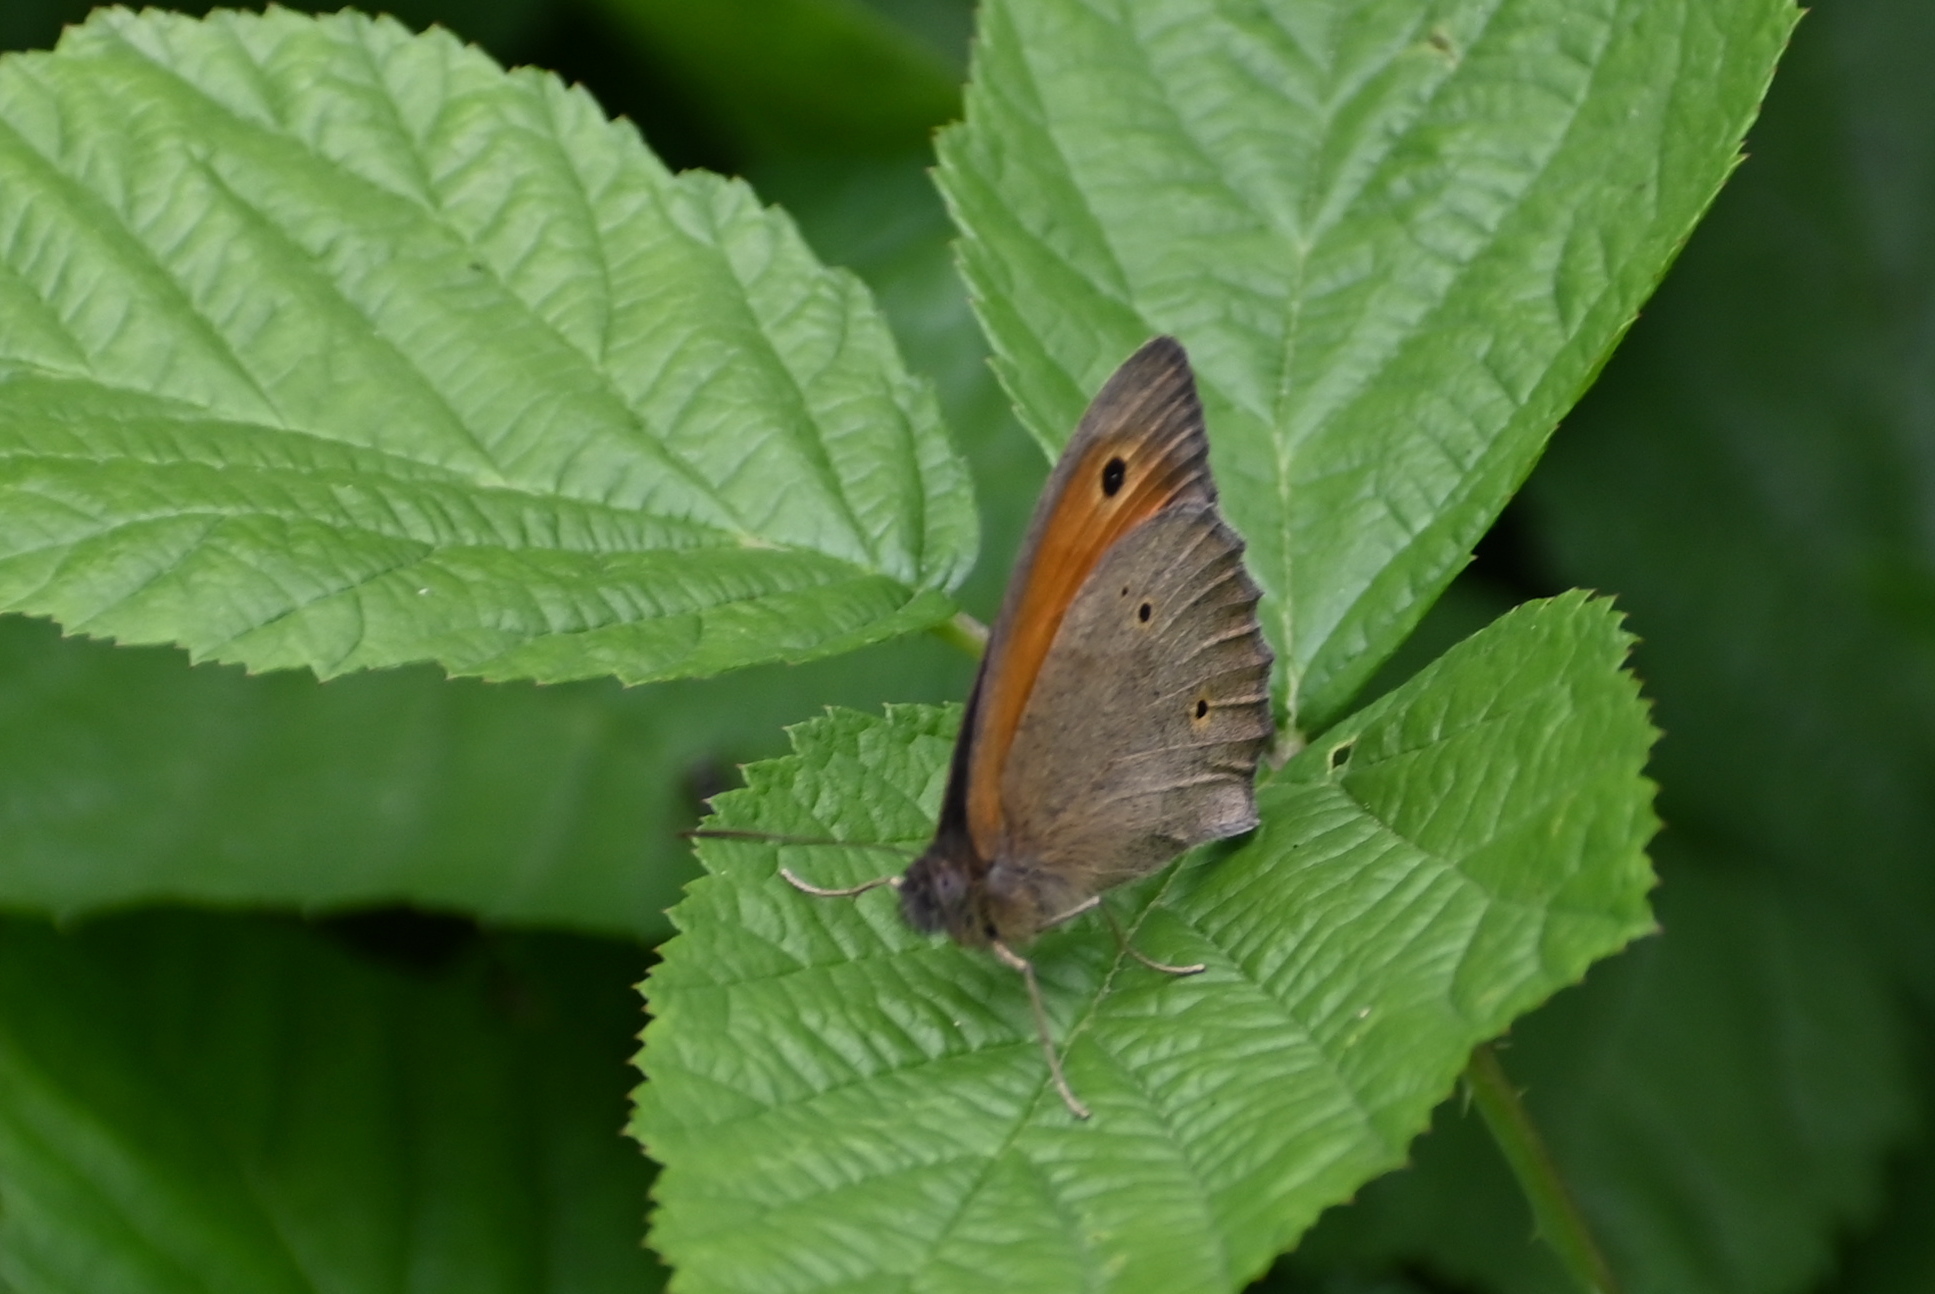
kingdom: Animalia
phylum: Arthropoda
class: Insecta
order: Lepidoptera
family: Nymphalidae
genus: Maniola
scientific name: Maniola jurtina
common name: Meadow brown
